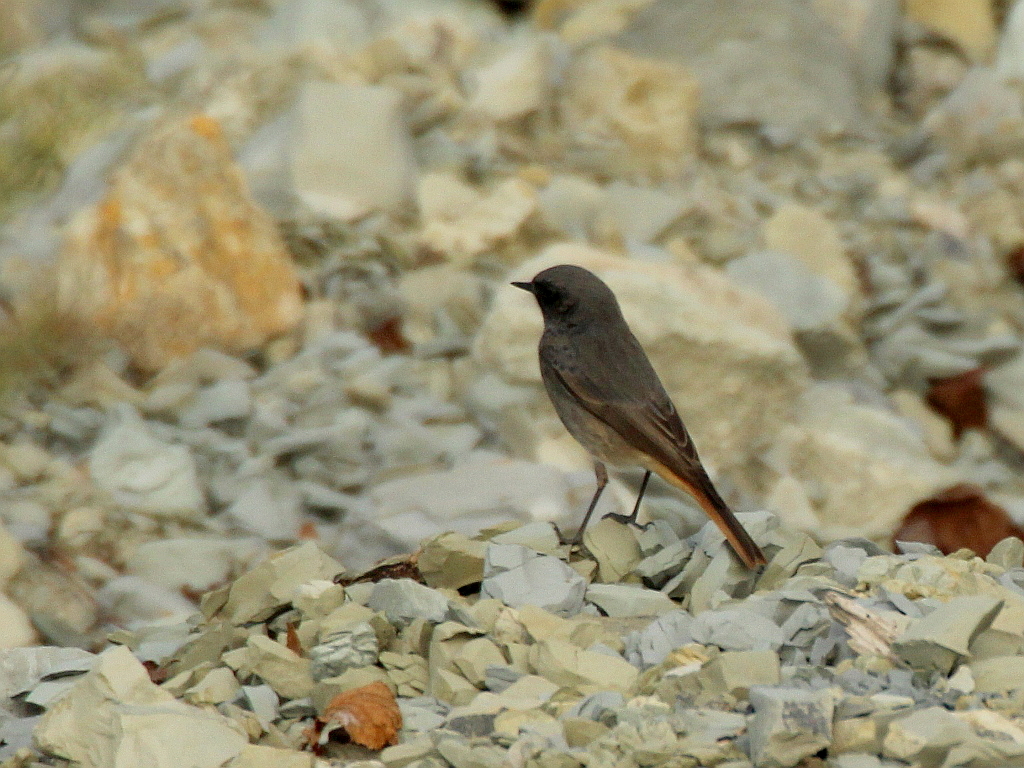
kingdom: Animalia
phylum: Chordata
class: Aves
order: Passeriformes
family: Muscicapidae
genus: Phoenicurus
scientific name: Phoenicurus ochruros
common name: Black redstart
